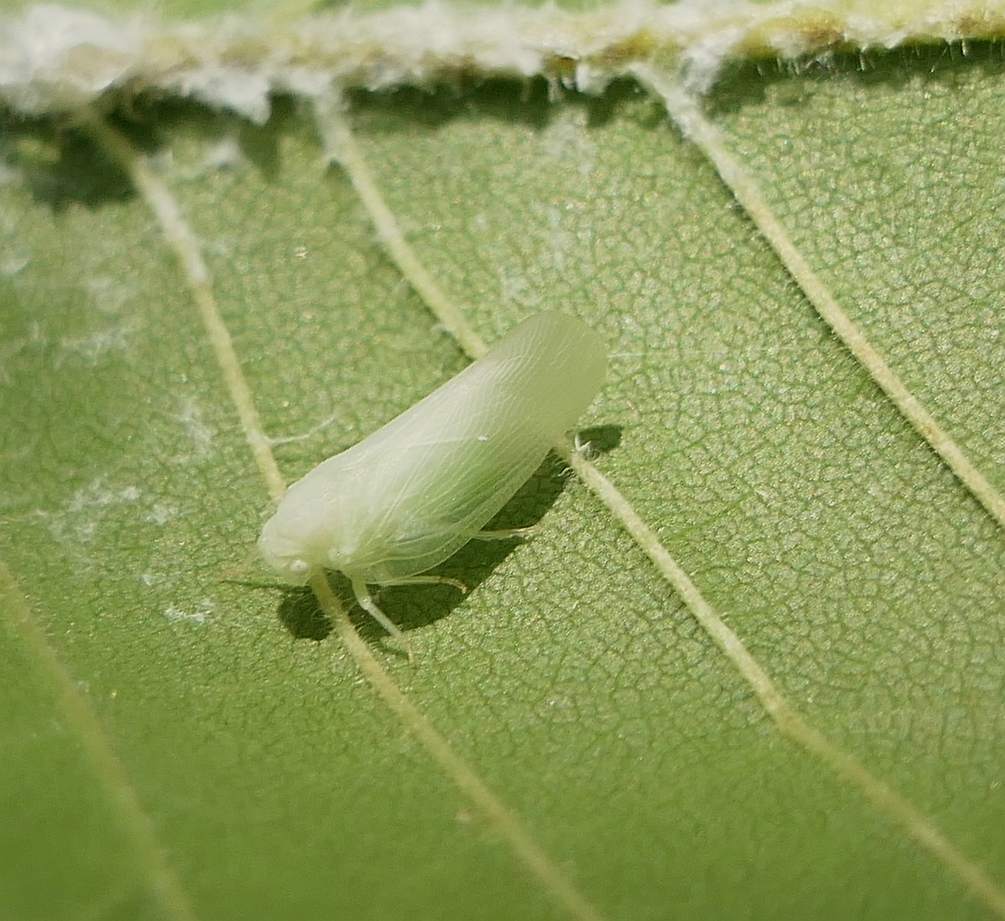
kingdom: Animalia
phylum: Arthropoda
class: Insecta
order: Hemiptera
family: Flatidae
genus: Ormenoides
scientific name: Ormenoides venusta
